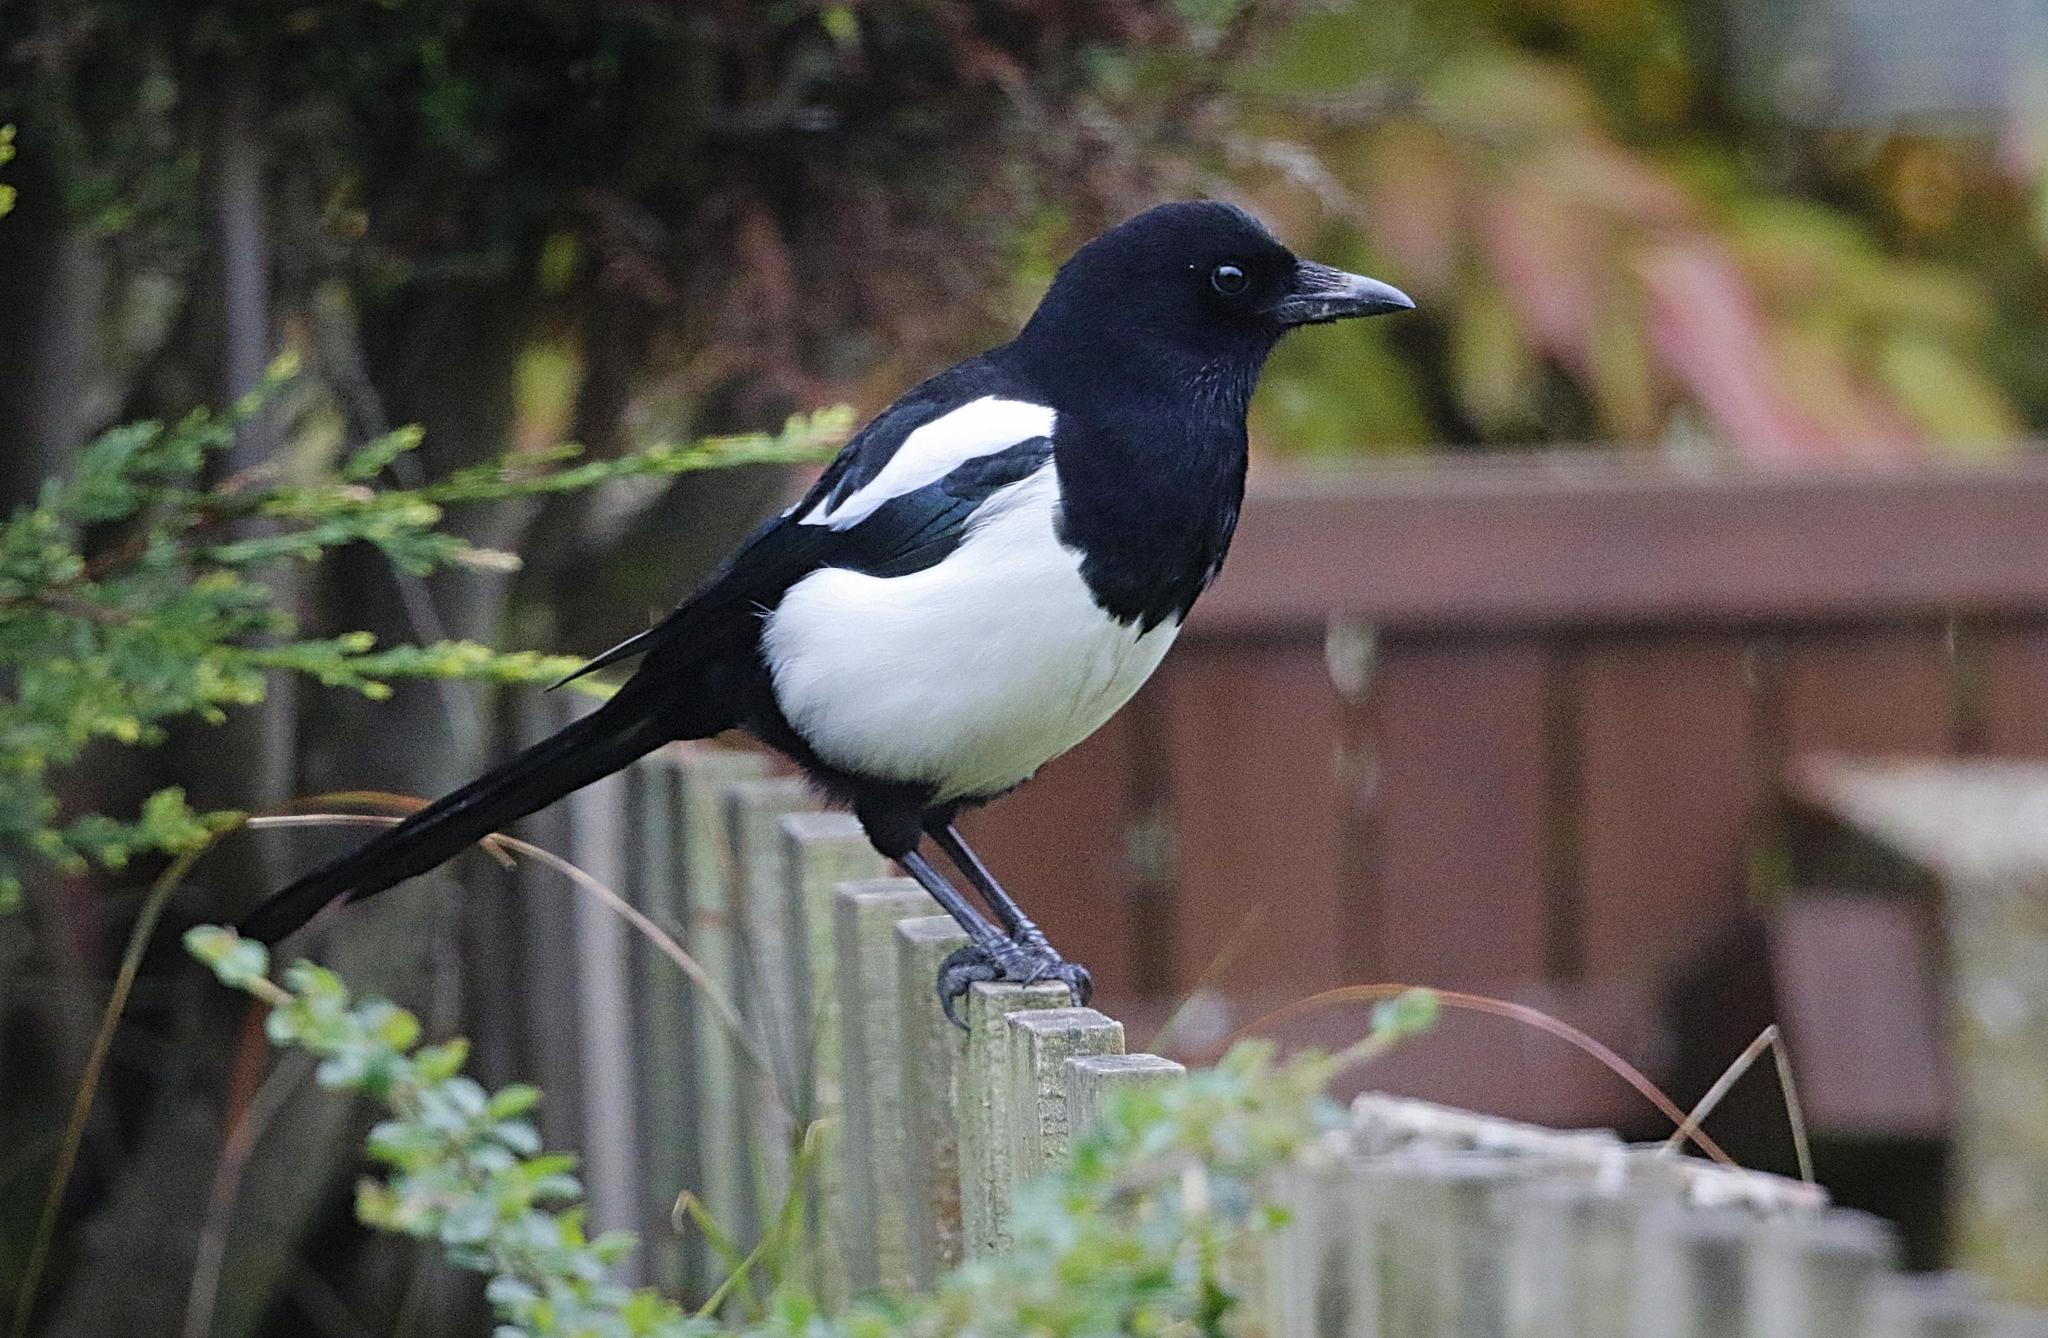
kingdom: Animalia
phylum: Chordata
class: Aves
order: Passeriformes
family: Corvidae
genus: Pica
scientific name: Pica pica
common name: Eurasian magpie
